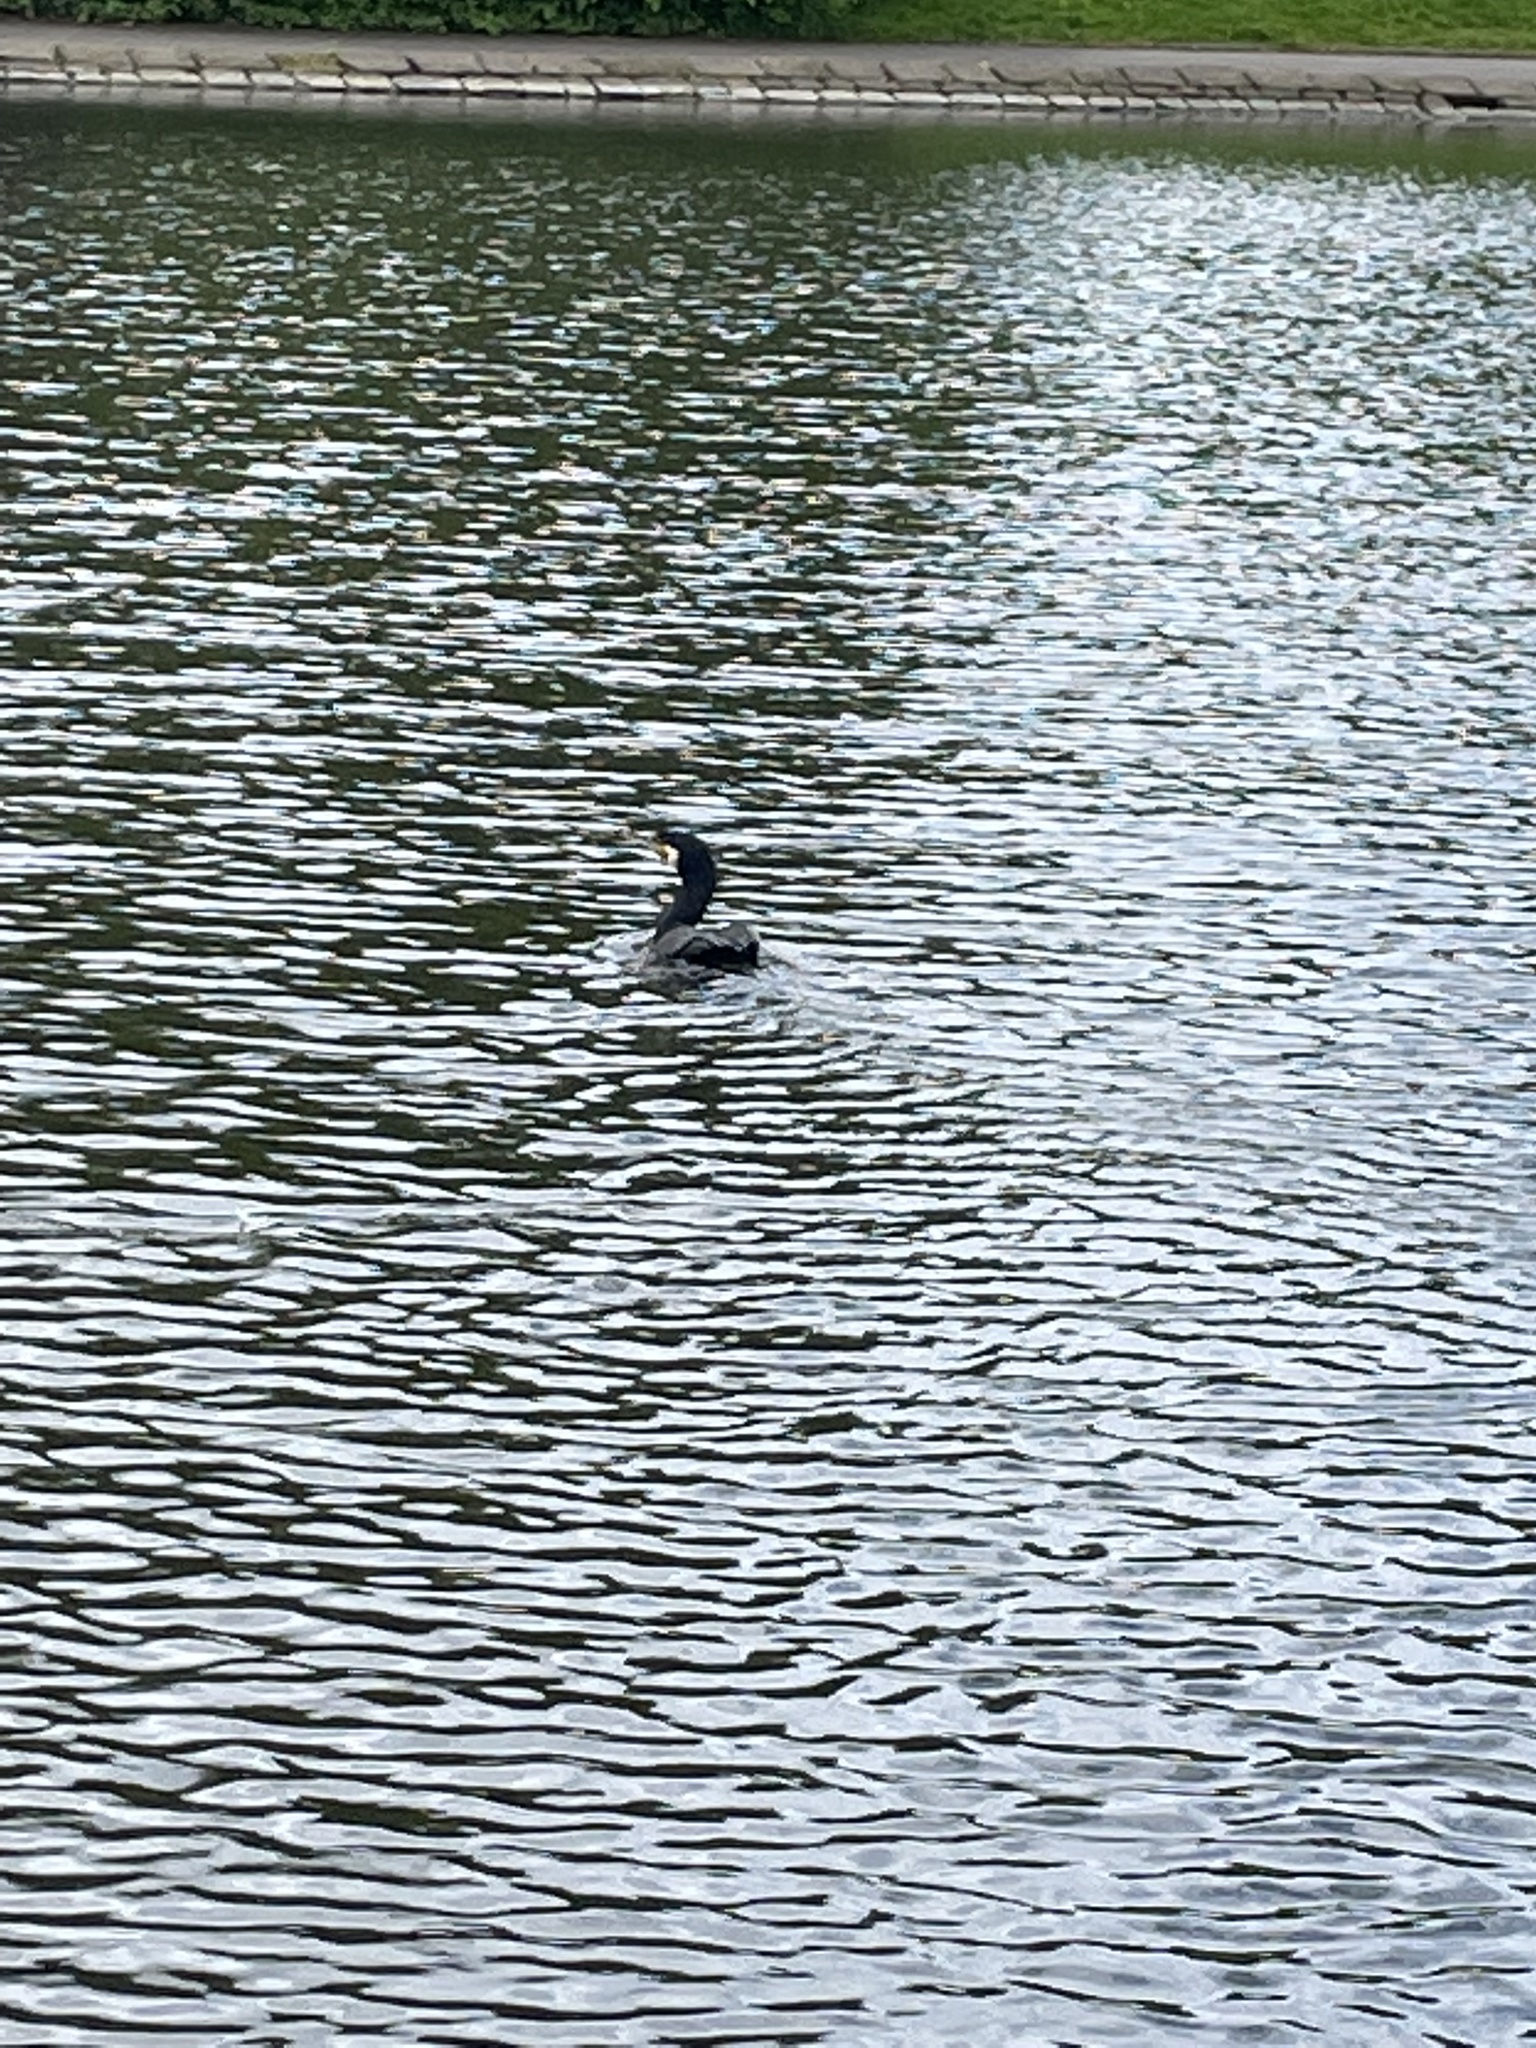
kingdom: Animalia
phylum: Chordata
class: Aves
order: Suliformes
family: Phalacrocoracidae
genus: Phalacrocorax
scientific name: Phalacrocorax carbo
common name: Great cormorant
